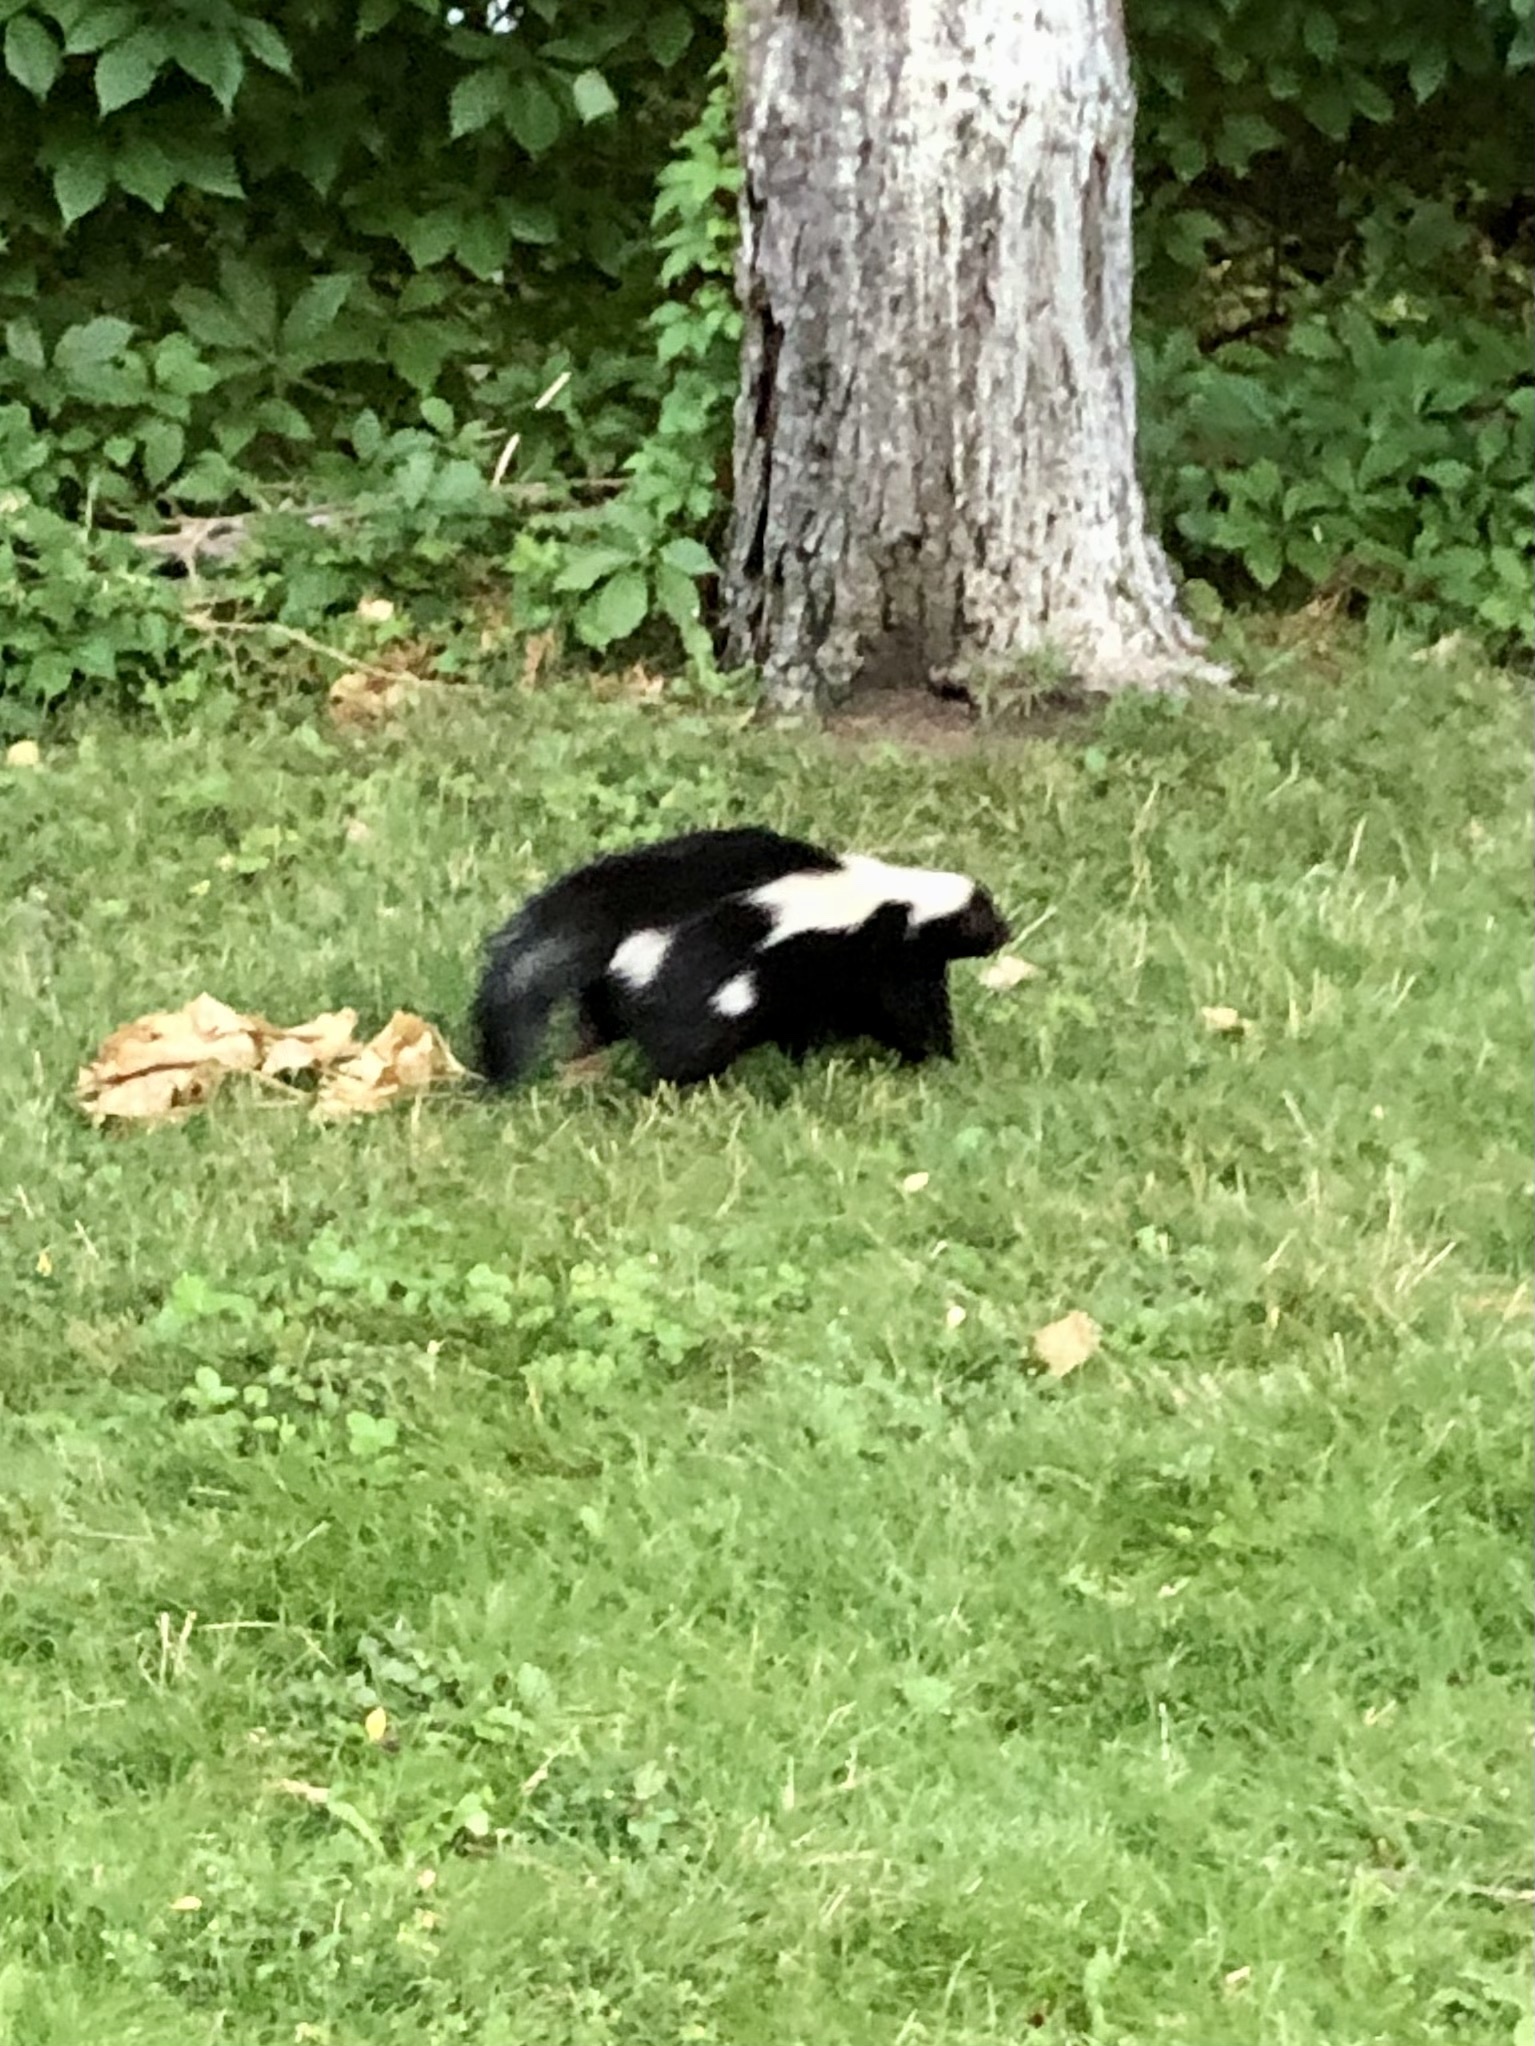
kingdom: Animalia
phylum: Chordata
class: Mammalia
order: Carnivora
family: Mephitidae
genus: Mephitis
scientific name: Mephitis mephitis
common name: Striped skunk
